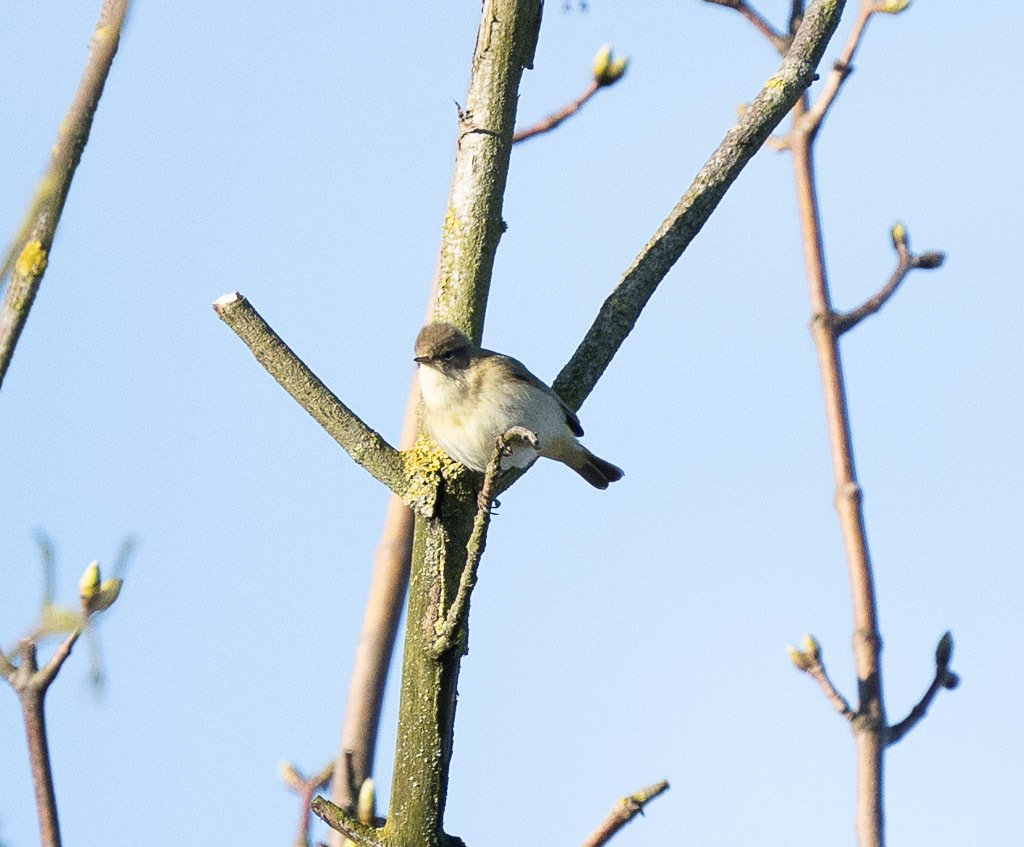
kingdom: Animalia
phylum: Chordata
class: Aves
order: Passeriformes
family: Phylloscopidae
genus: Phylloscopus
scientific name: Phylloscopus collybita
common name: Common chiffchaff
